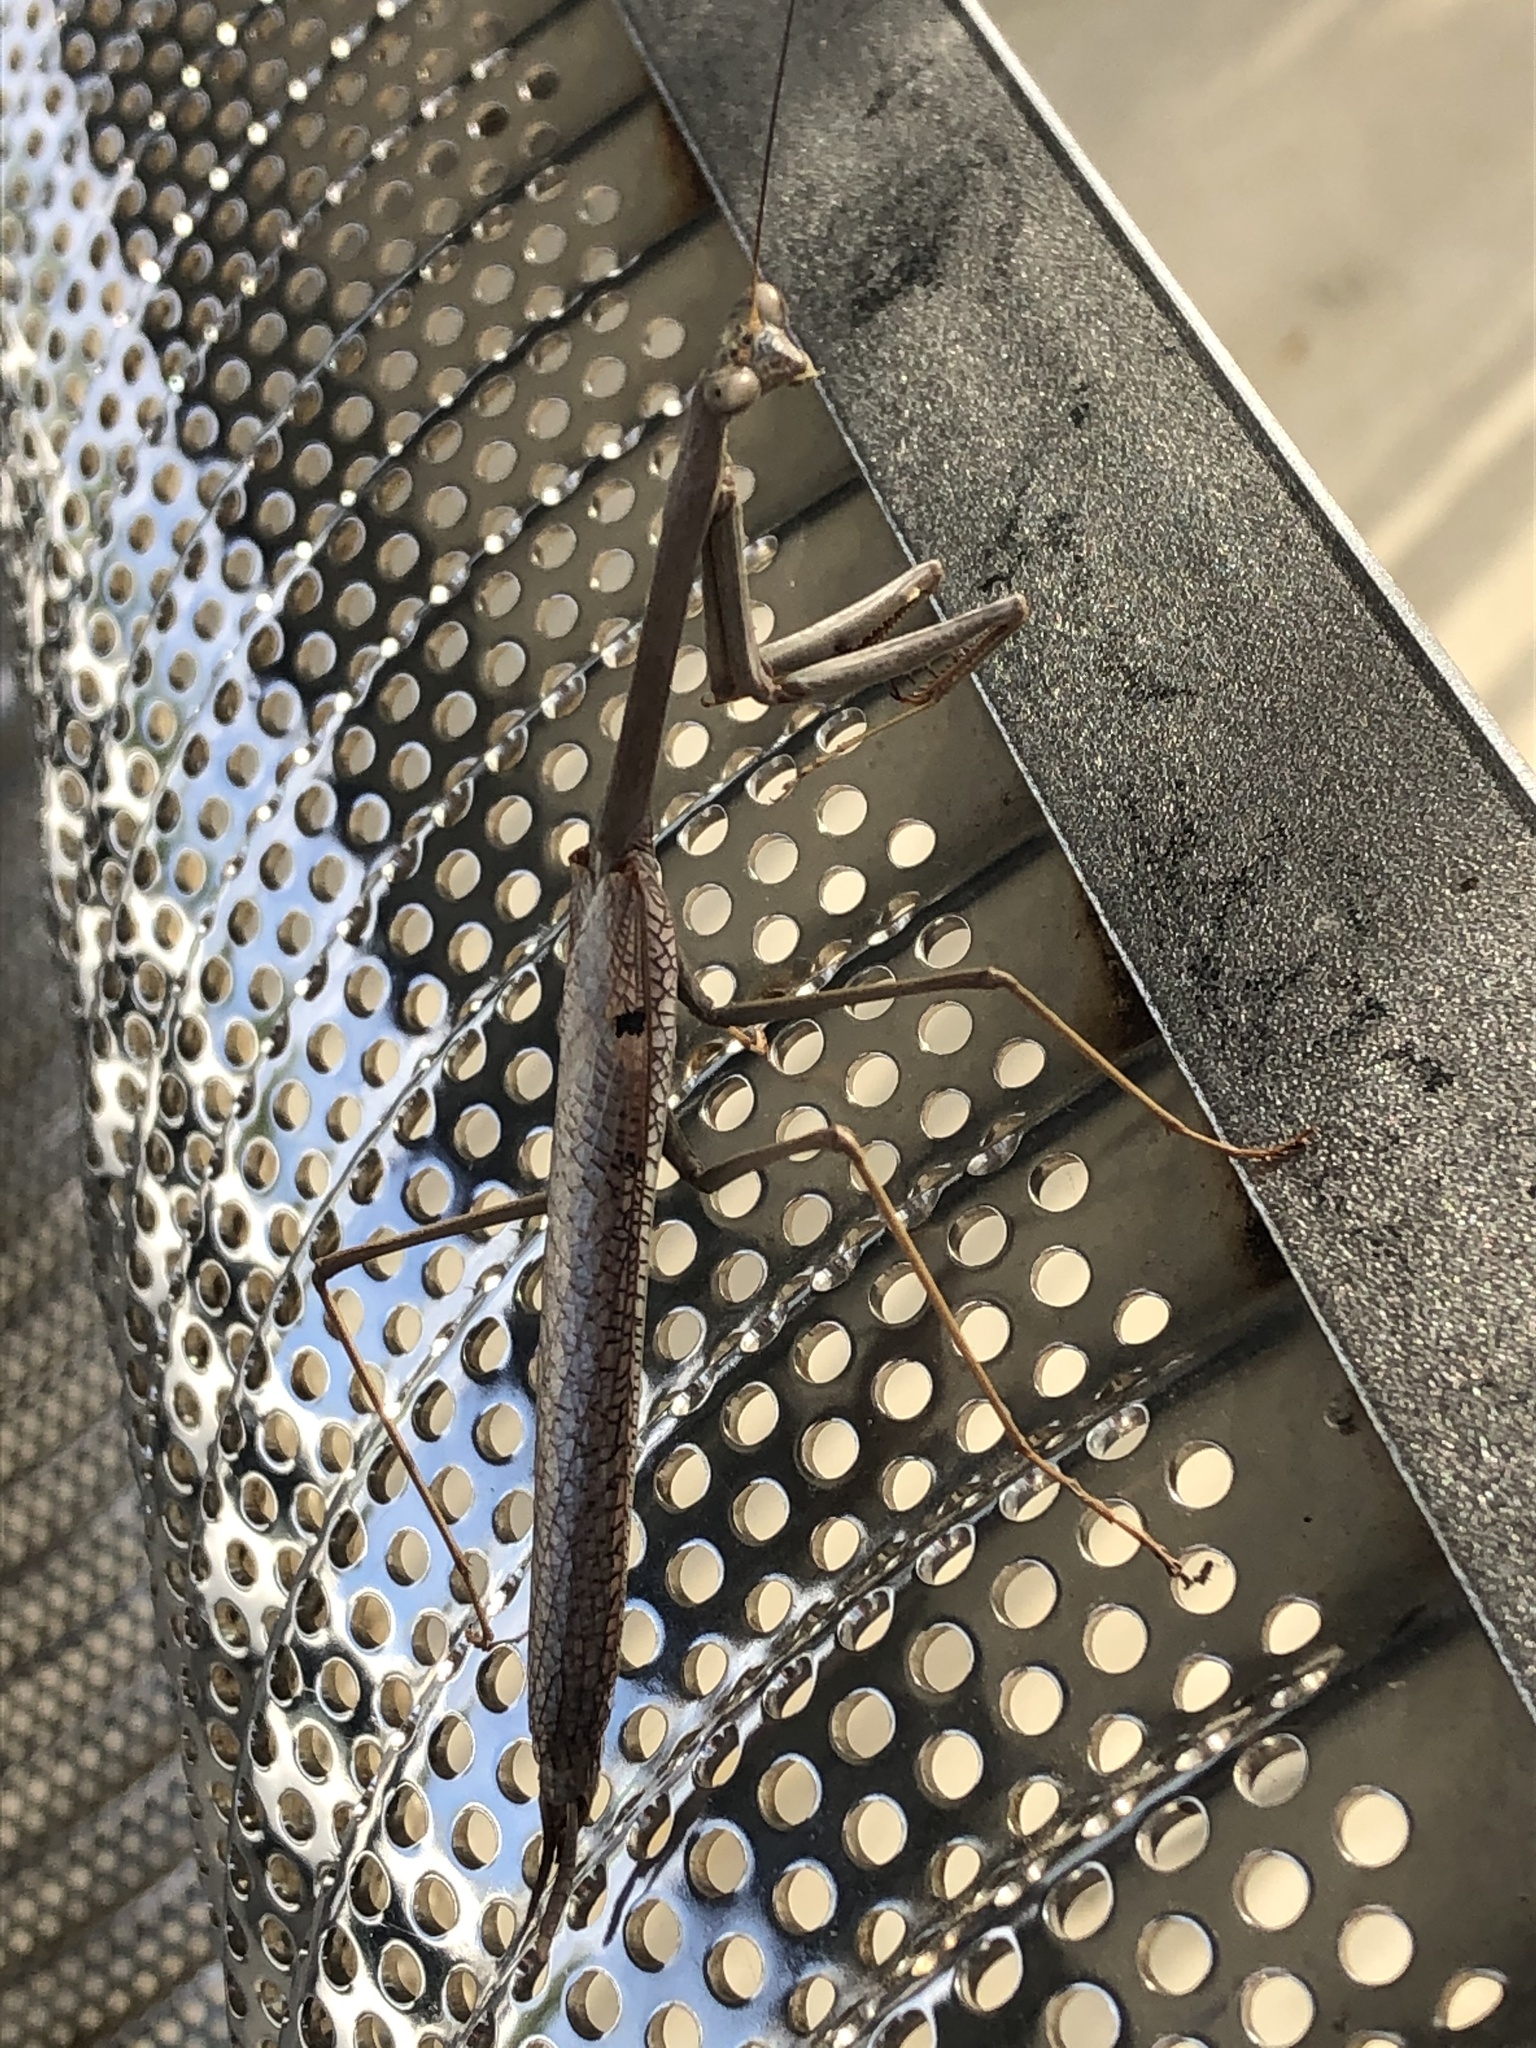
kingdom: Animalia
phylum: Arthropoda
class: Insecta
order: Mantodea
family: Mantidae
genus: Archimantis
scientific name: Archimantis latistyla
